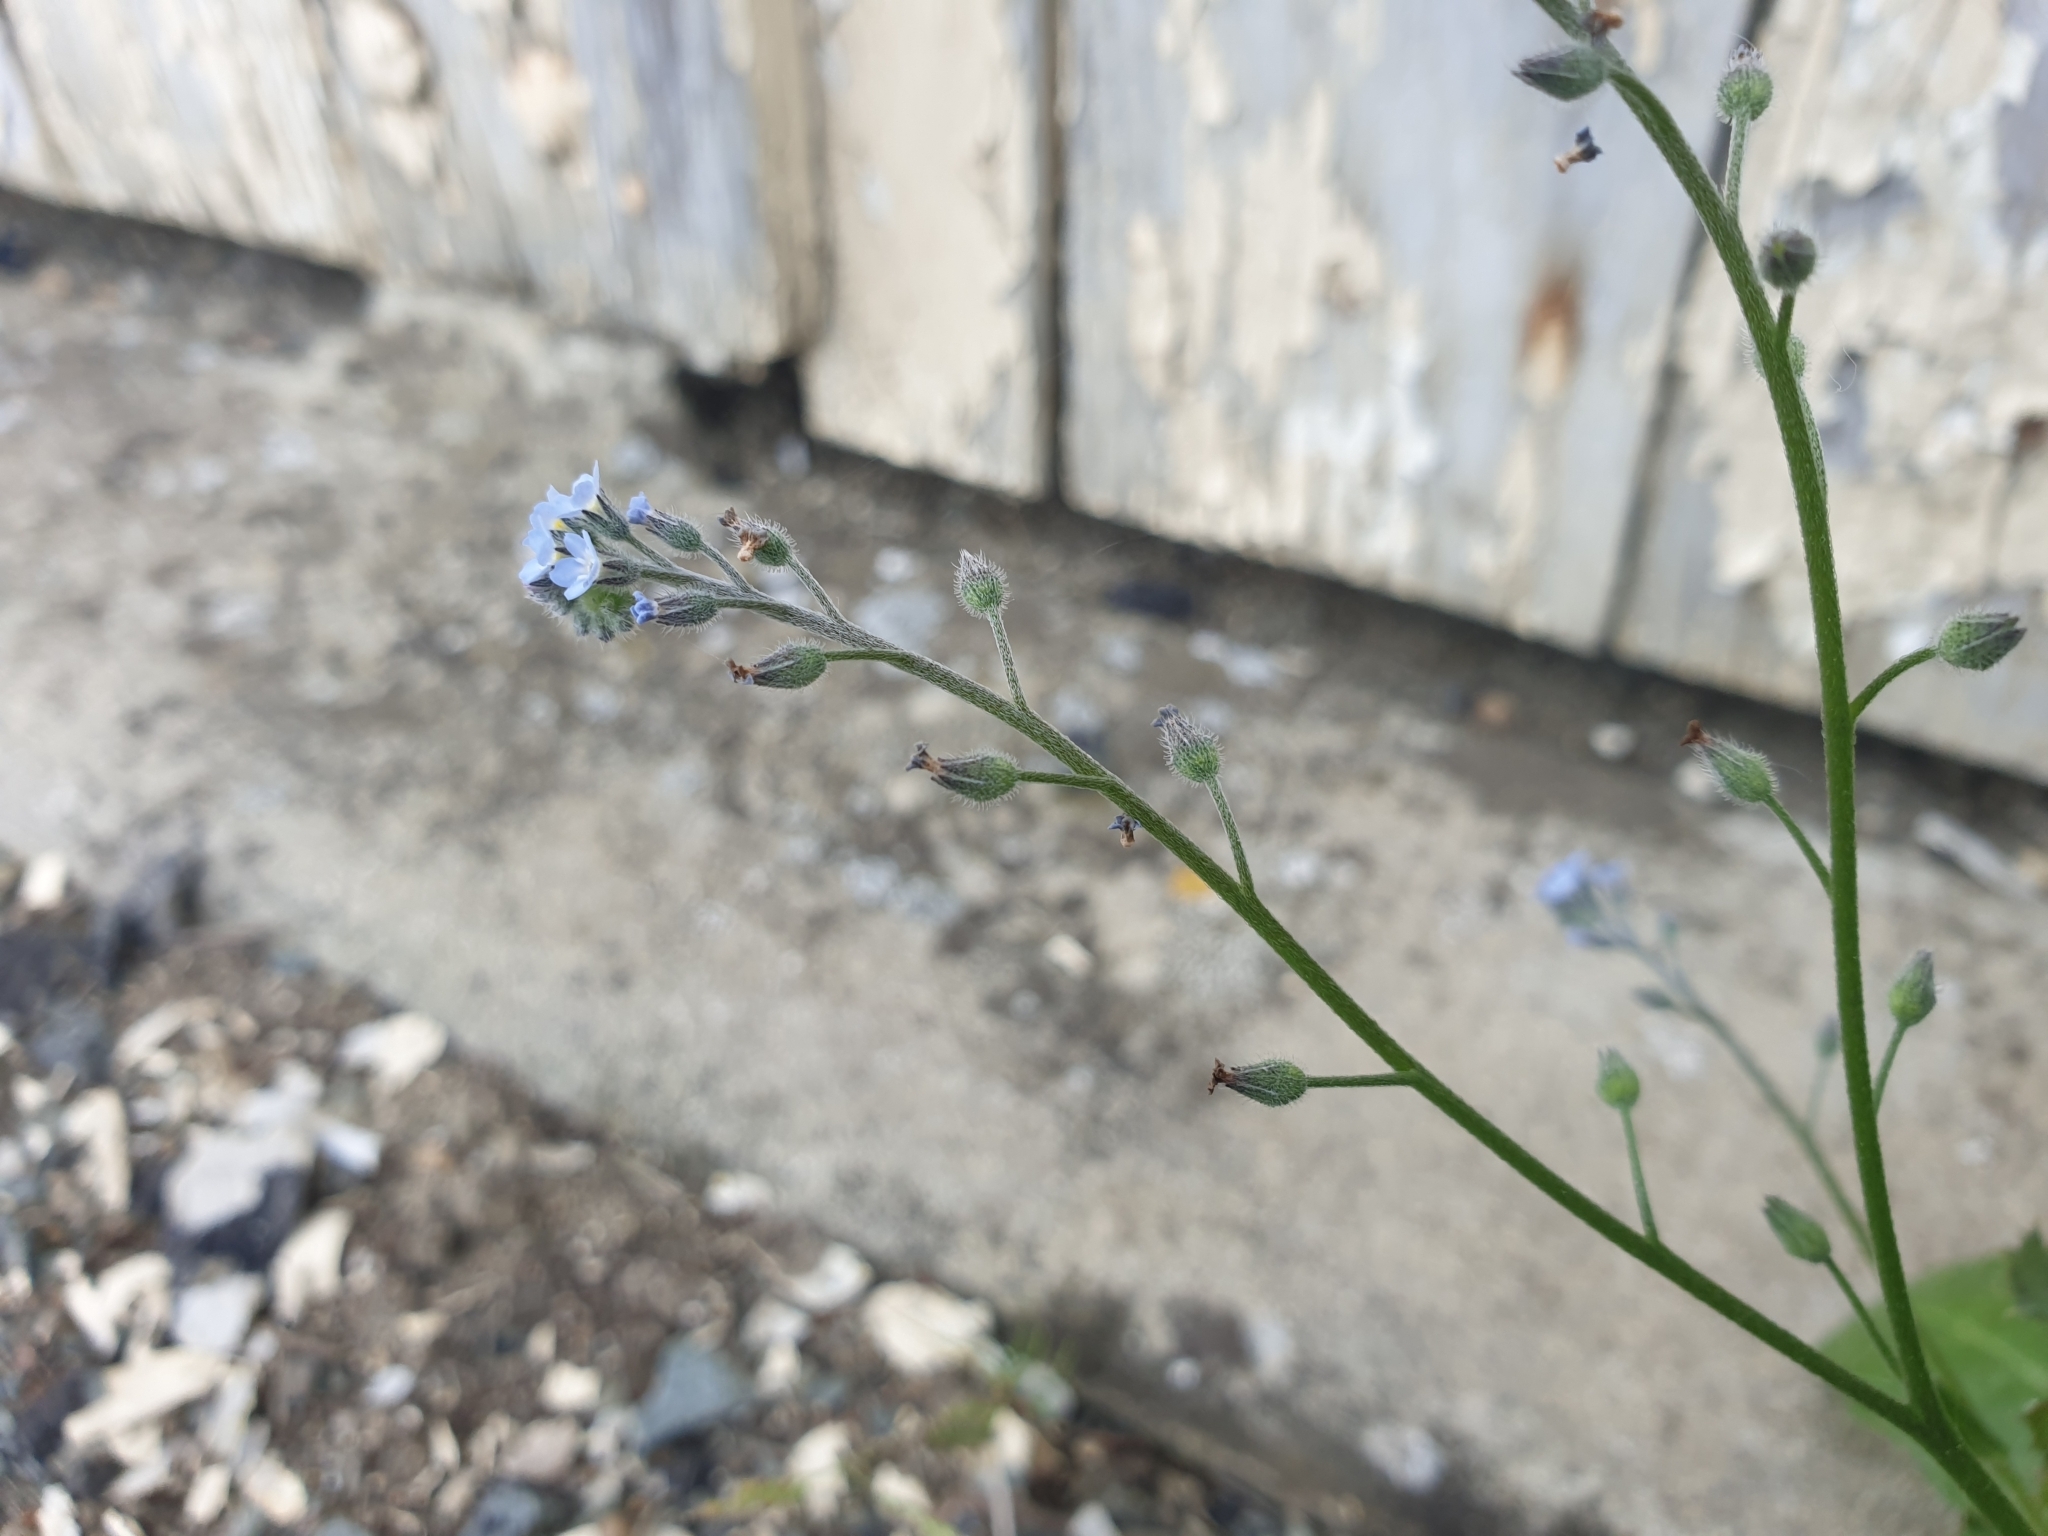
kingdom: Plantae
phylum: Tracheophyta
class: Magnoliopsida
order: Boraginales
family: Boraginaceae
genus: Myosotis
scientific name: Myosotis arvensis
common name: Field forget-me-not
